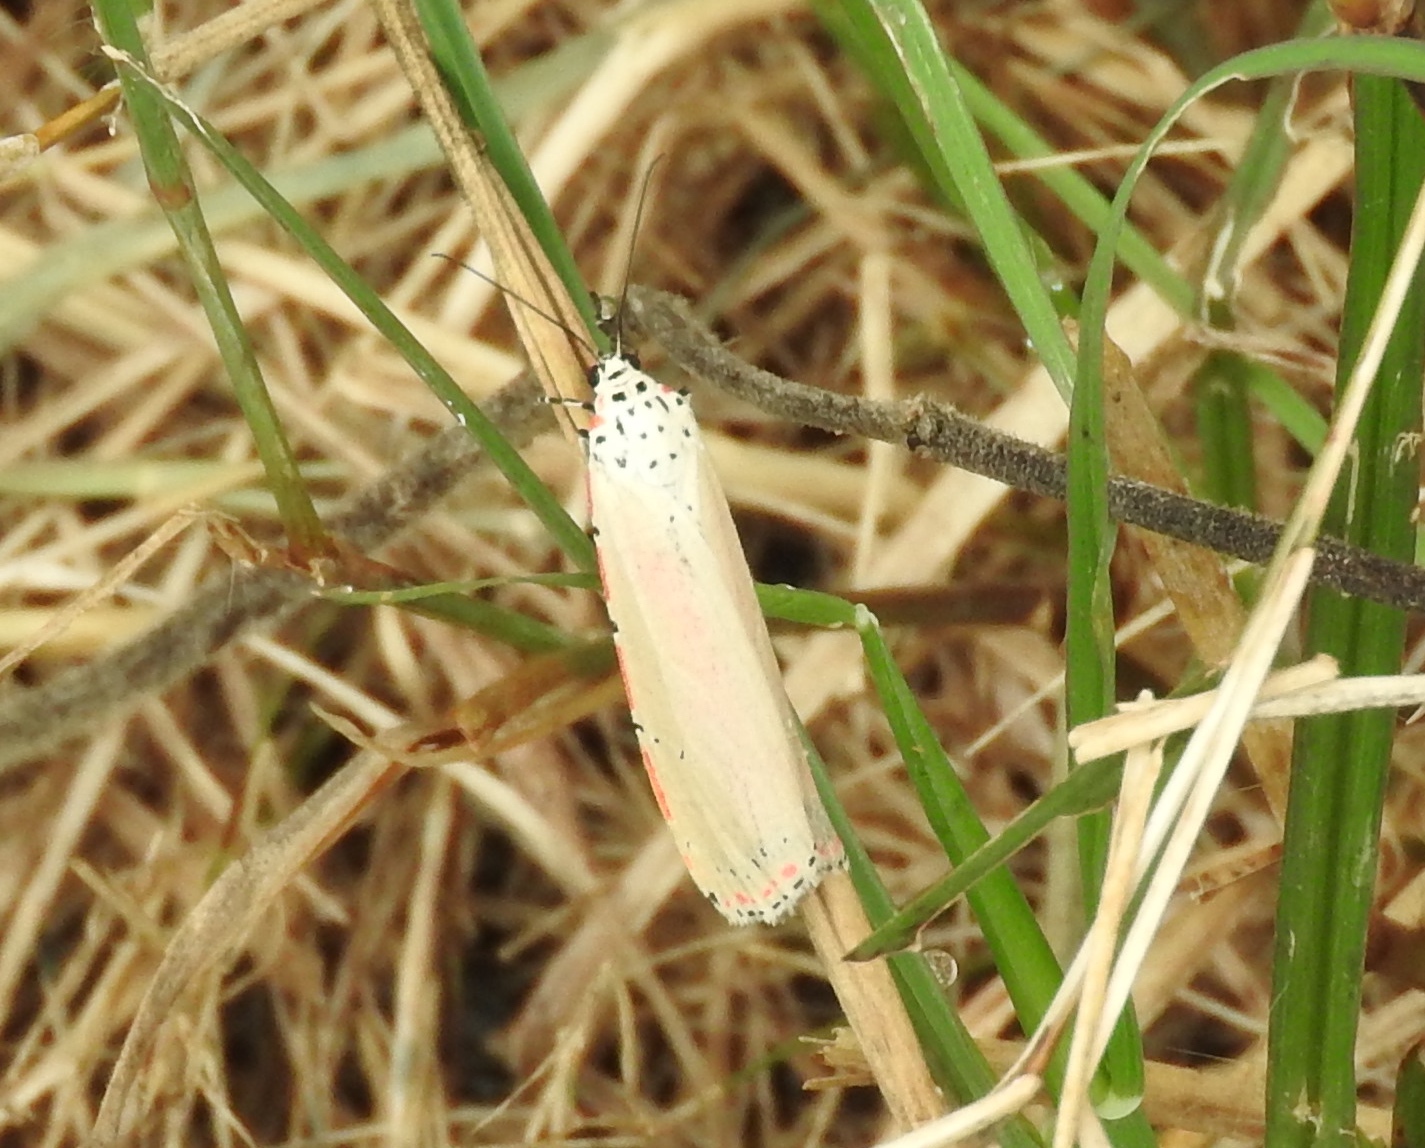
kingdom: Animalia
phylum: Arthropoda
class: Insecta
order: Lepidoptera
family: Erebidae
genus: Utetheisa
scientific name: Utetheisa ornatrix
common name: Beautiful utetheisa
